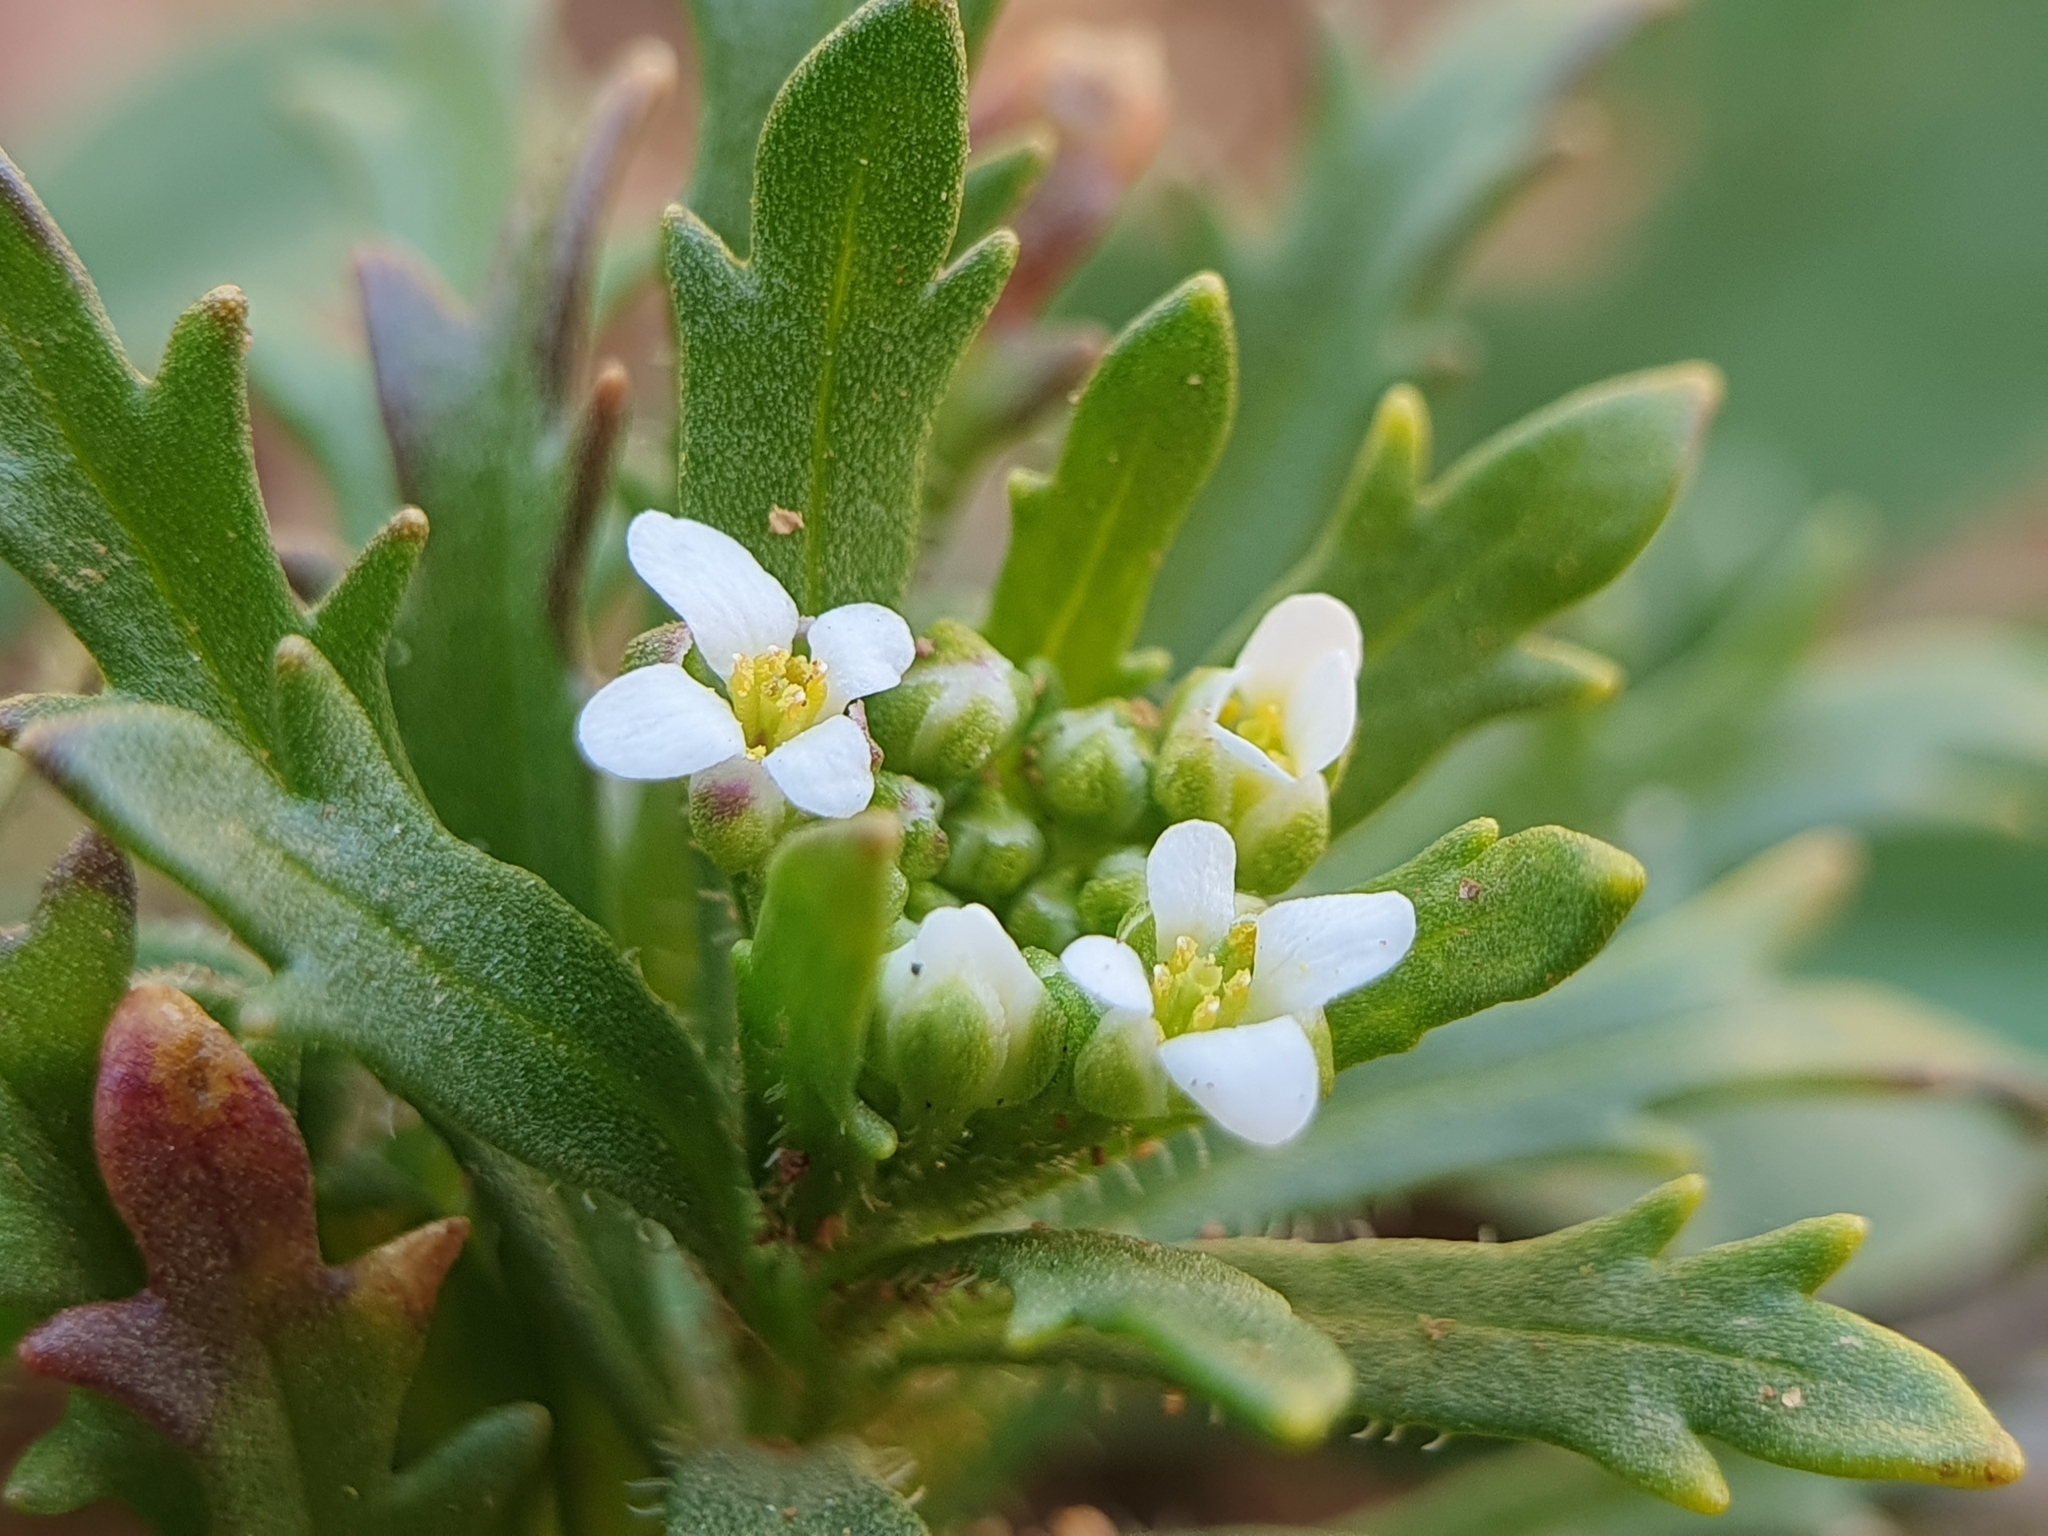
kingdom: Plantae
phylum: Tracheophyta
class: Magnoliopsida
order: Brassicales
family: Brassicaceae
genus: Iberis
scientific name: Iberis odorata
